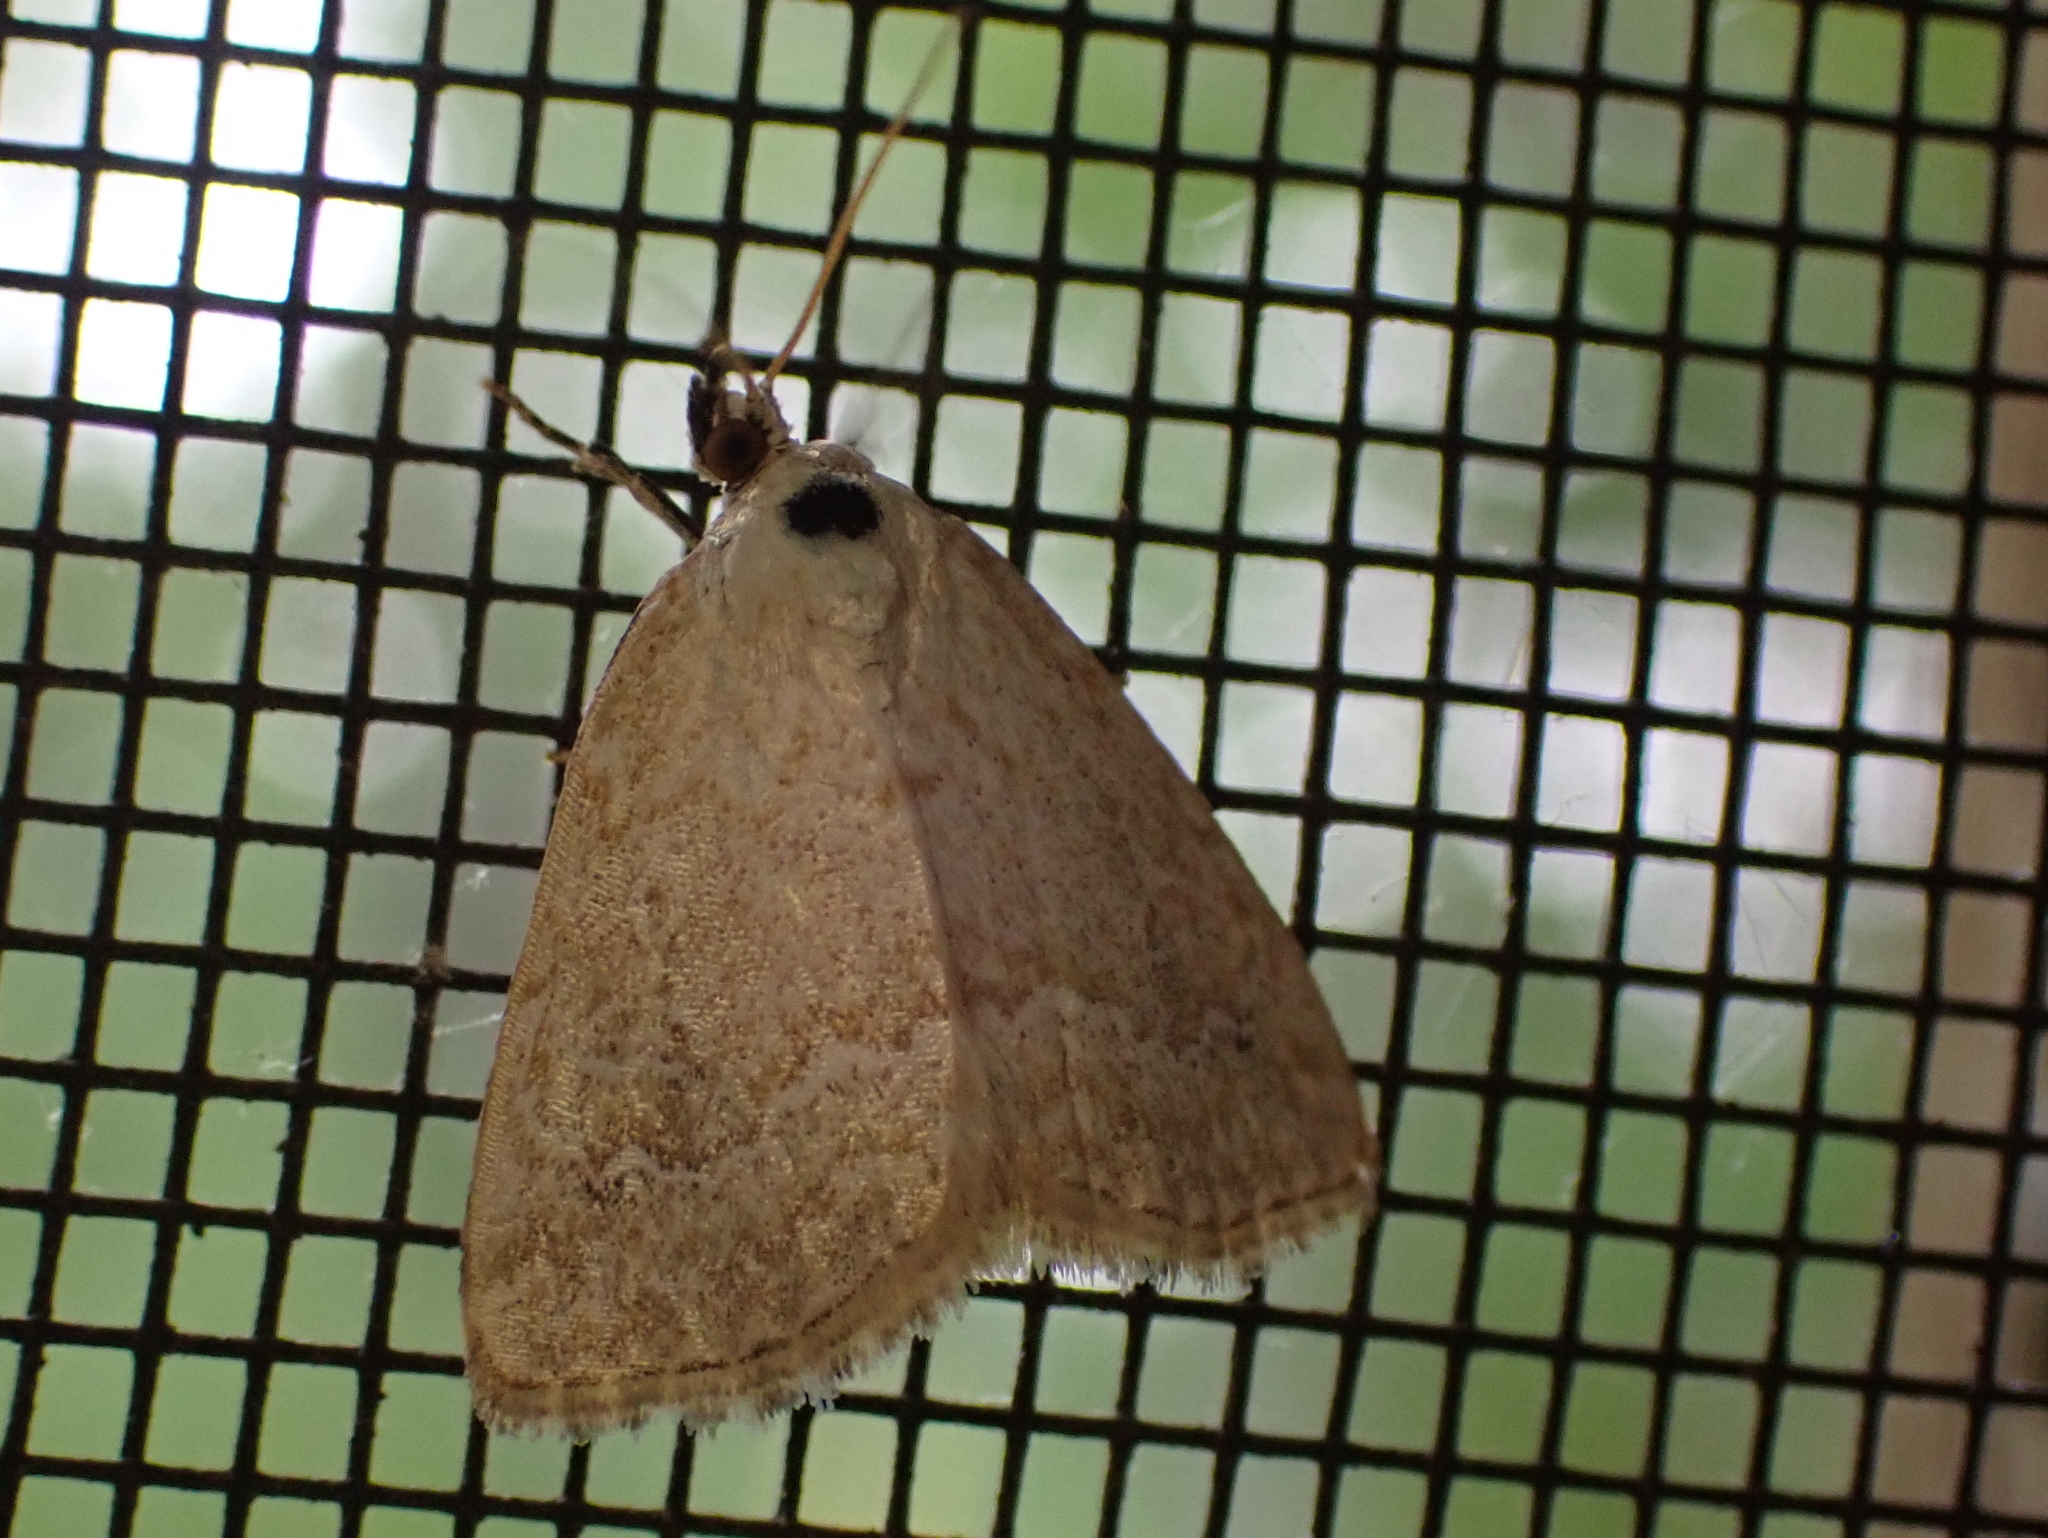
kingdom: Animalia
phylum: Arthropoda
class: Insecta
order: Lepidoptera
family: Noctuidae
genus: Protodeltote
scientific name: Protodeltote albidula
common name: Pale glyph
